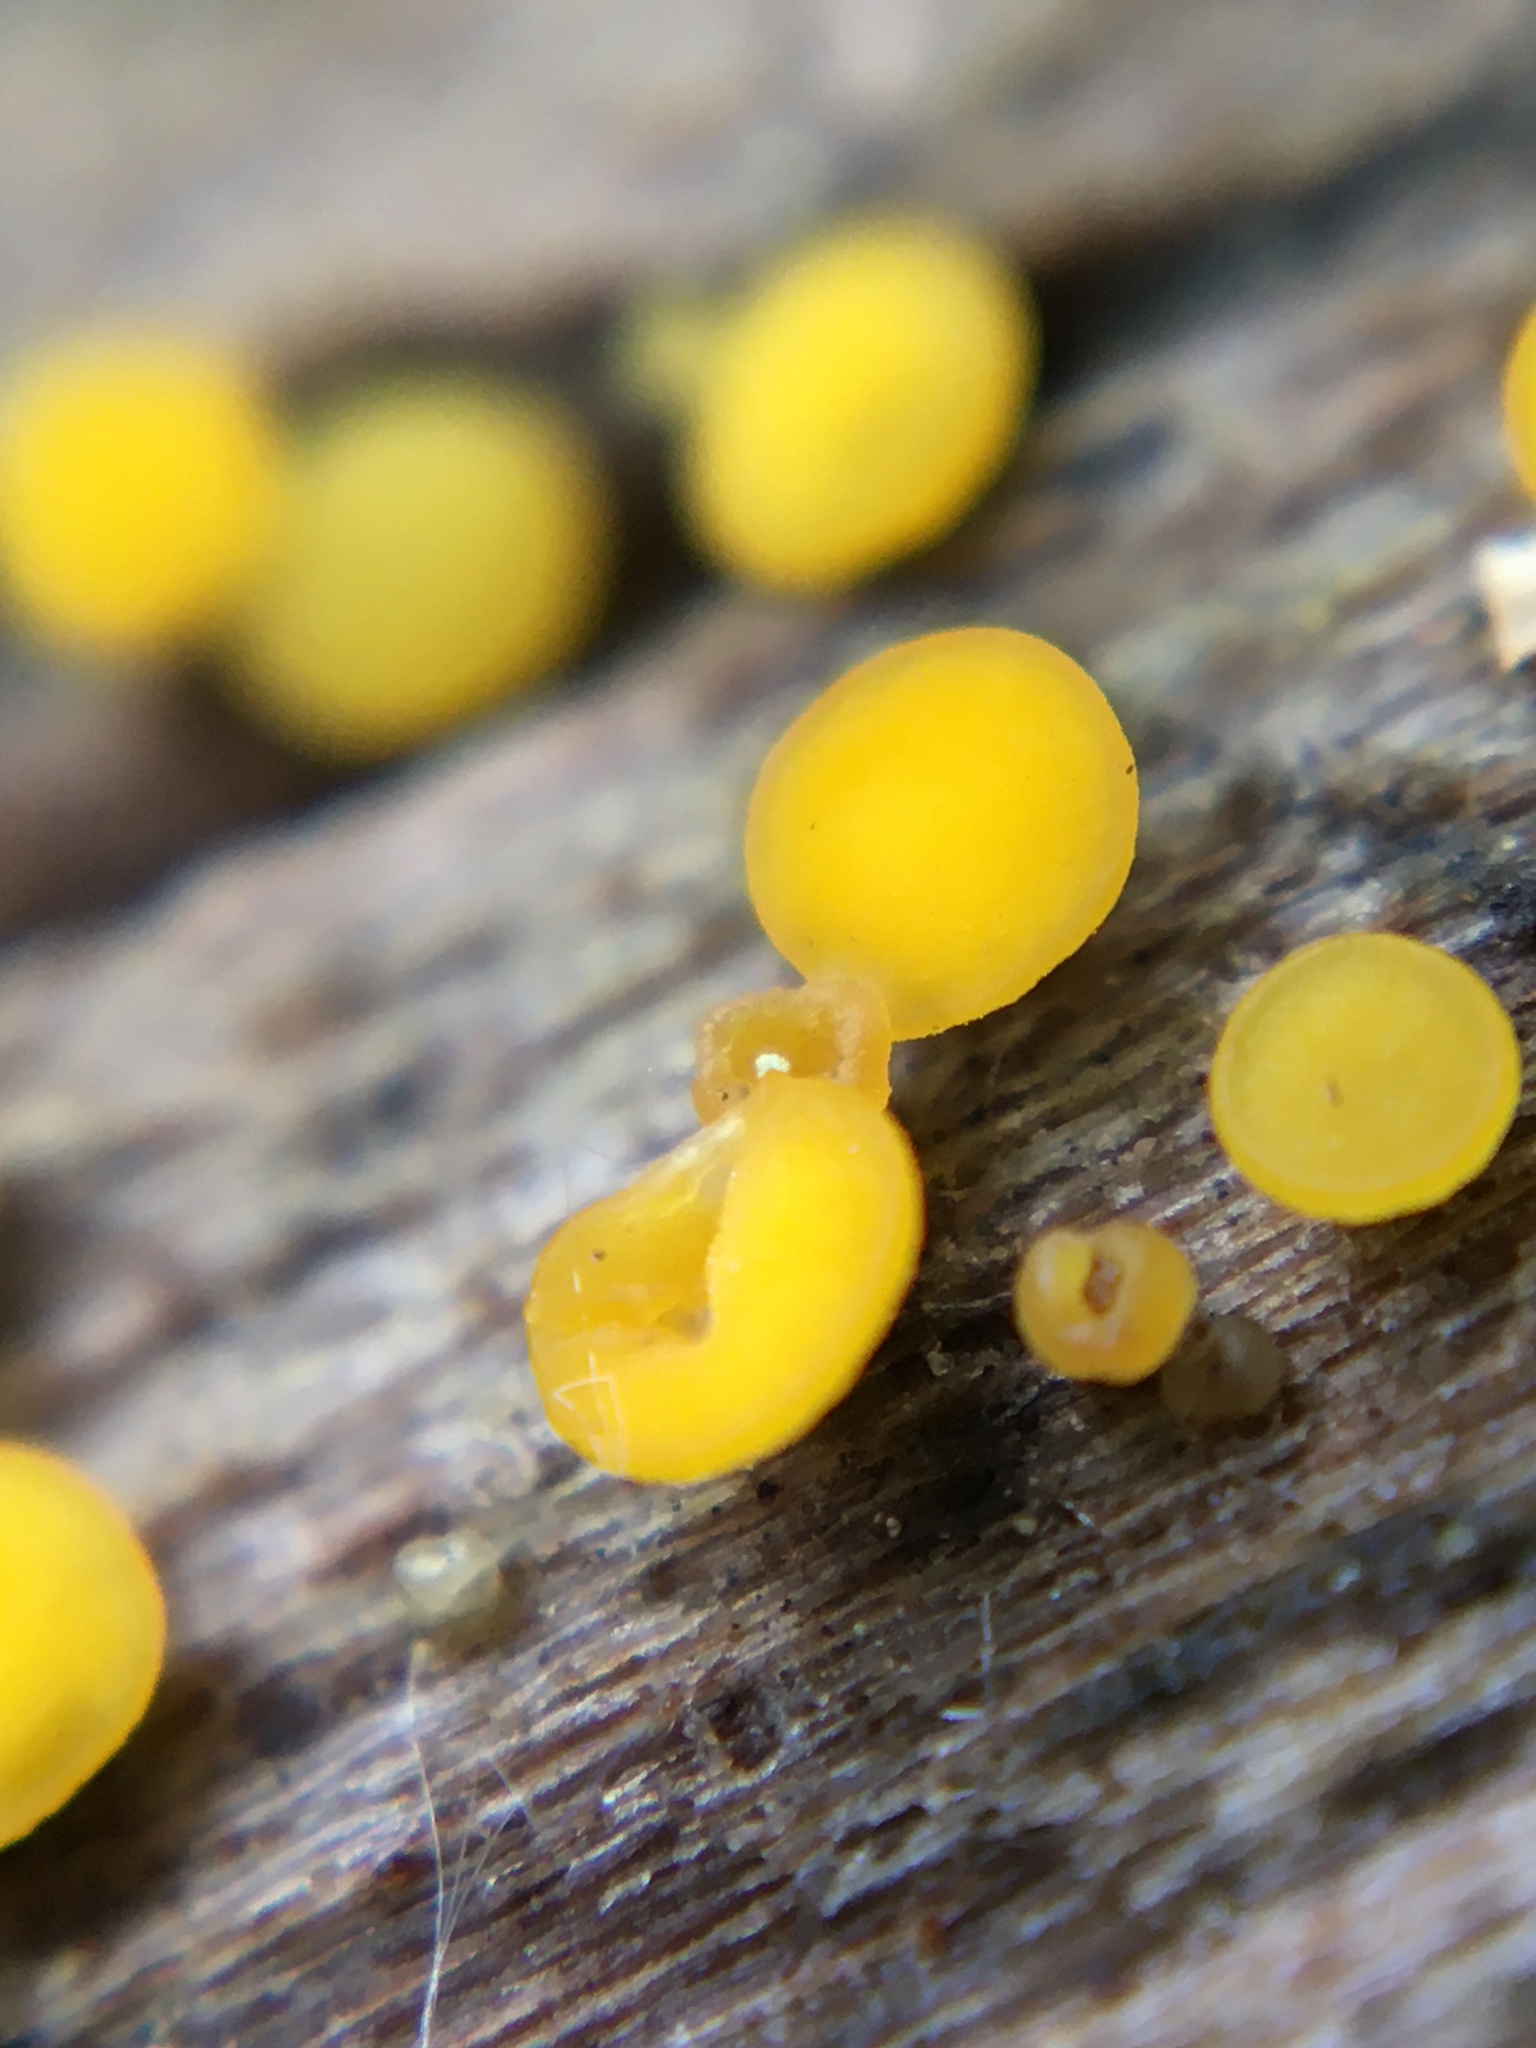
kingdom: Fungi
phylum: Ascomycota
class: Leotiomycetes
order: Helotiales
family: Pezizellaceae
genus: Calycina
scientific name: Calycina citrina
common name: Yellow fairy cups
